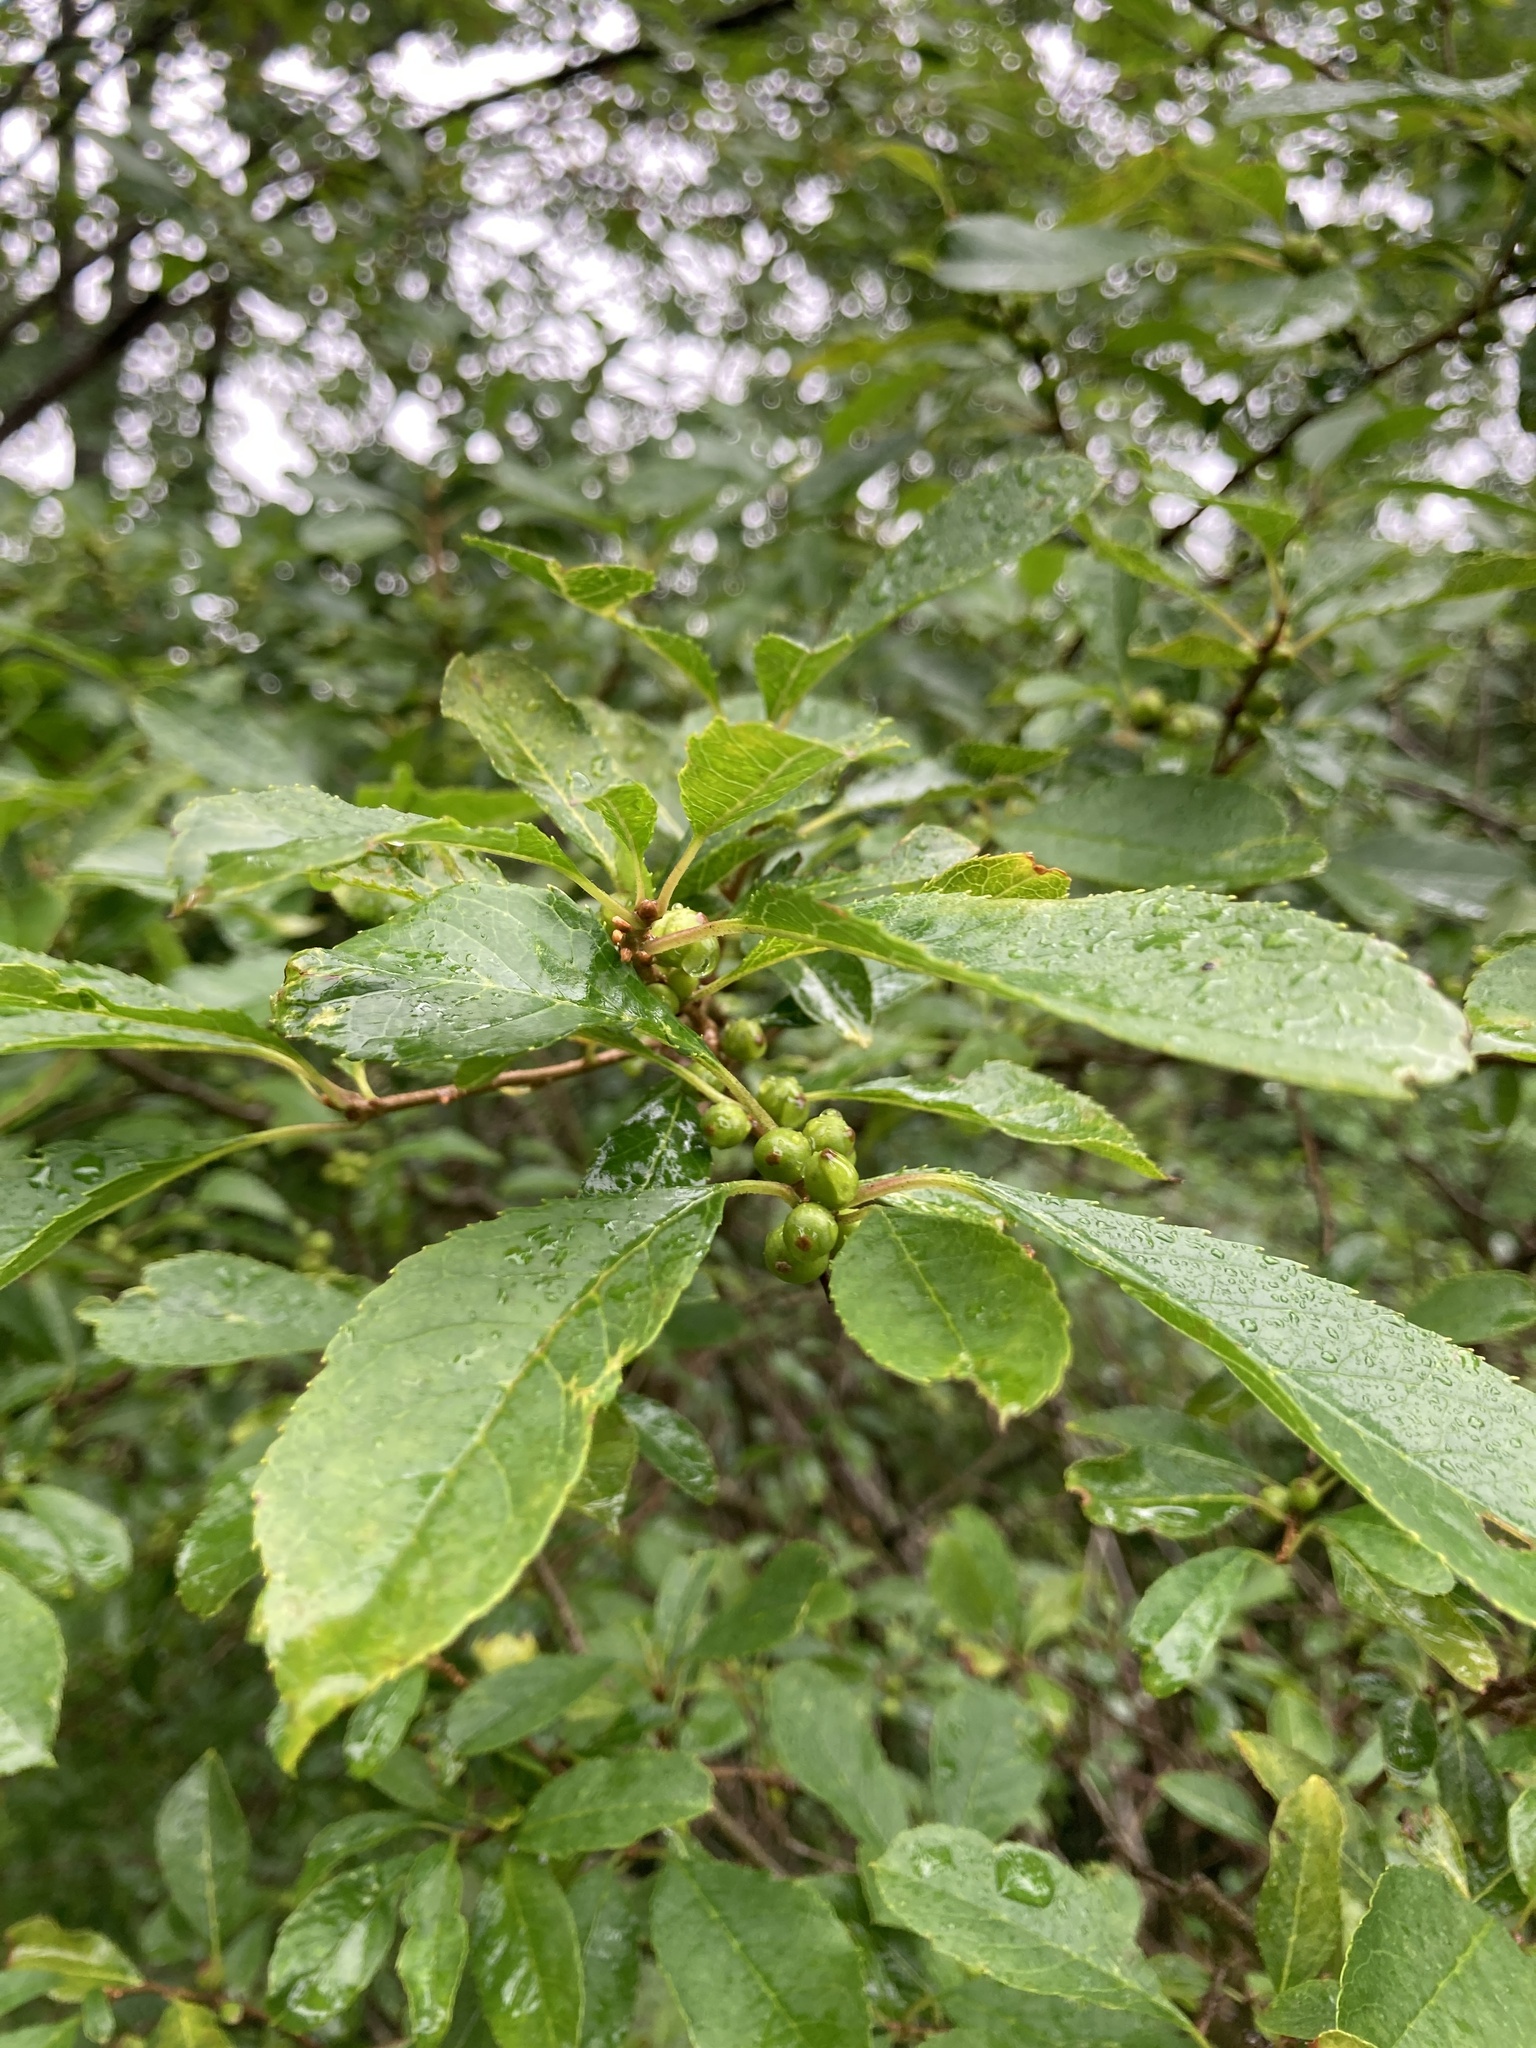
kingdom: Plantae
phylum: Tracheophyta
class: Magnoliopsida
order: Aquifoliales
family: Aquifoliaceae
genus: Ilex
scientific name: Ilex verticillata
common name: Virginia winterberry
